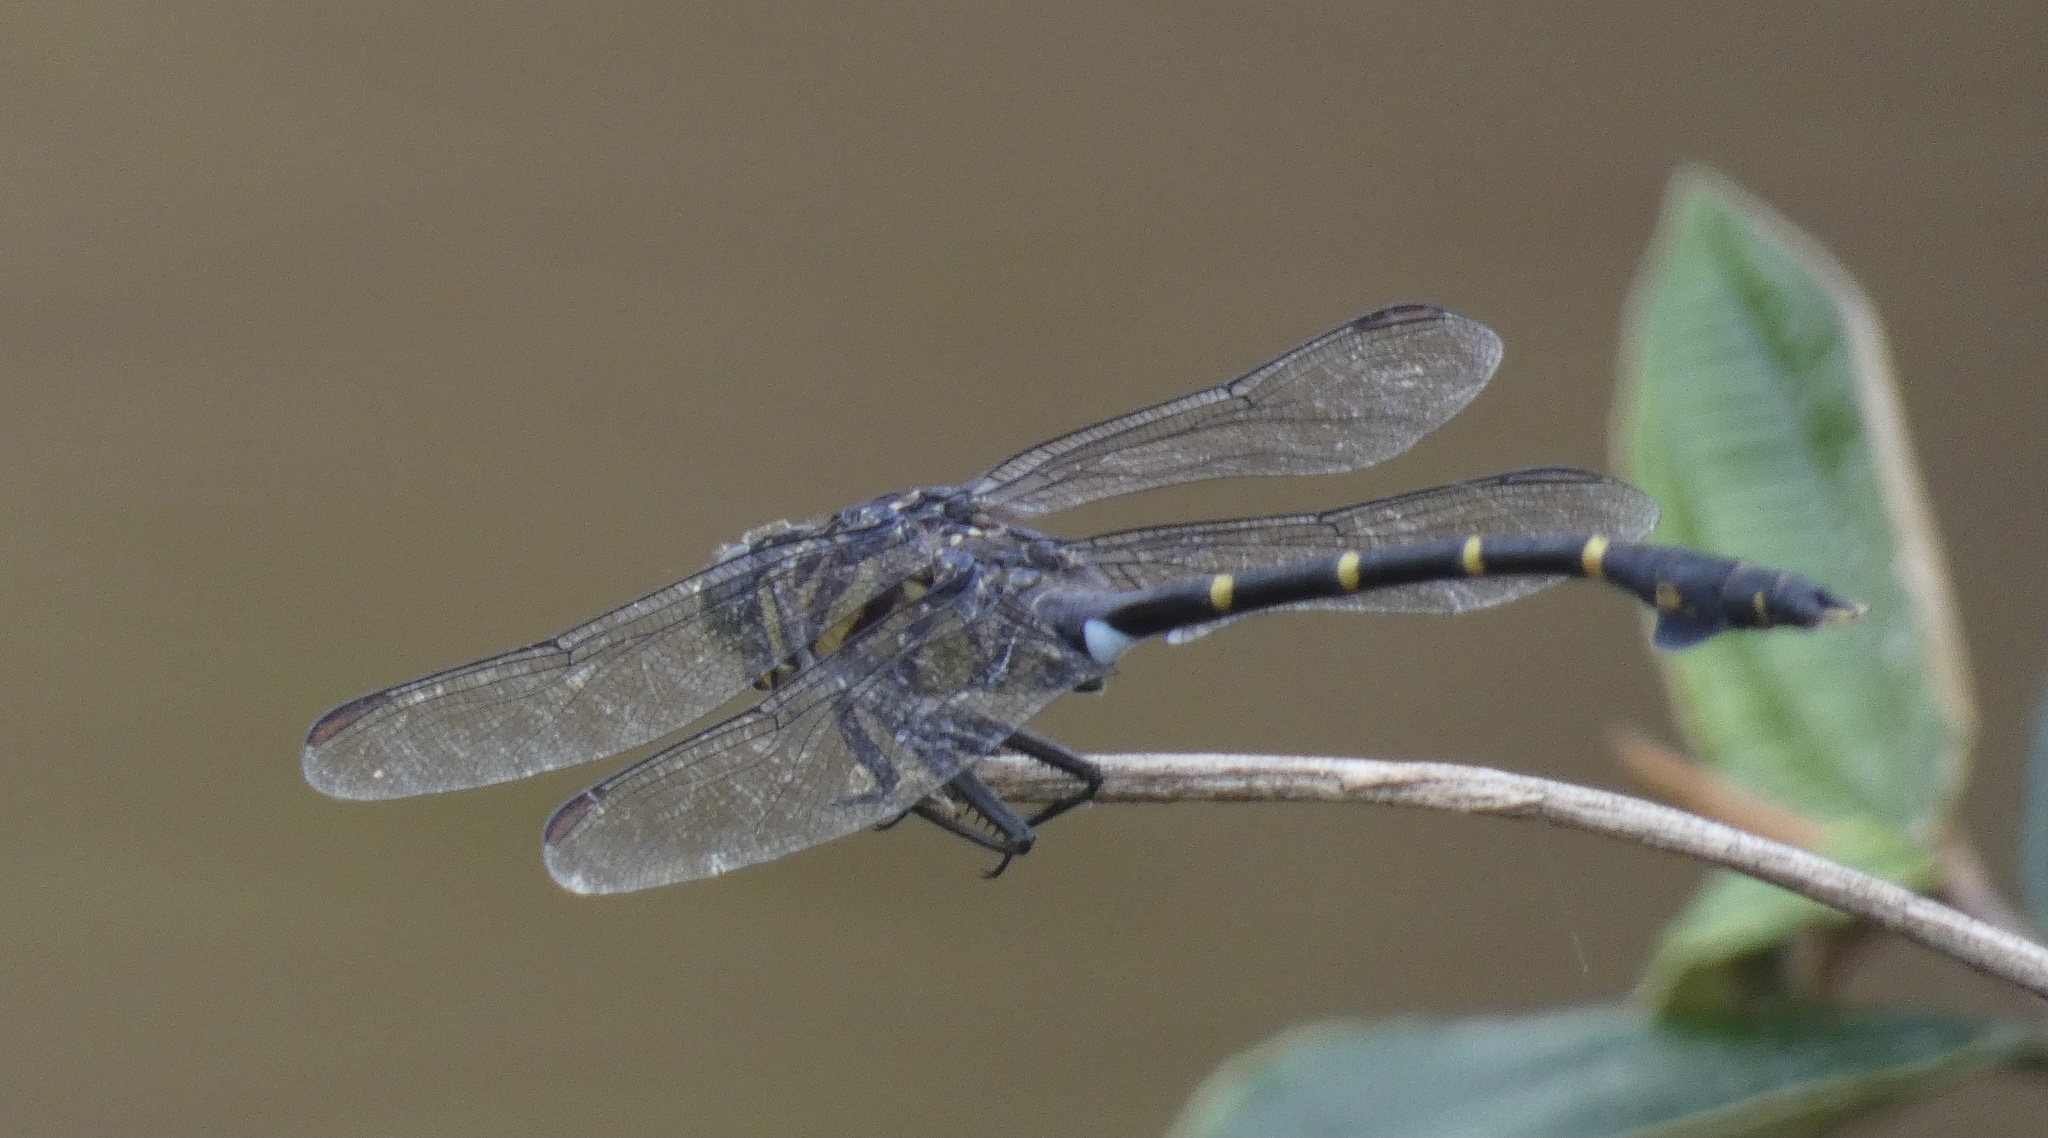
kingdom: Animalia
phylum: Arthropoda
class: Insecta
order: Odonata
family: Gomphidae
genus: Cacoides
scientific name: Cacoides latro
